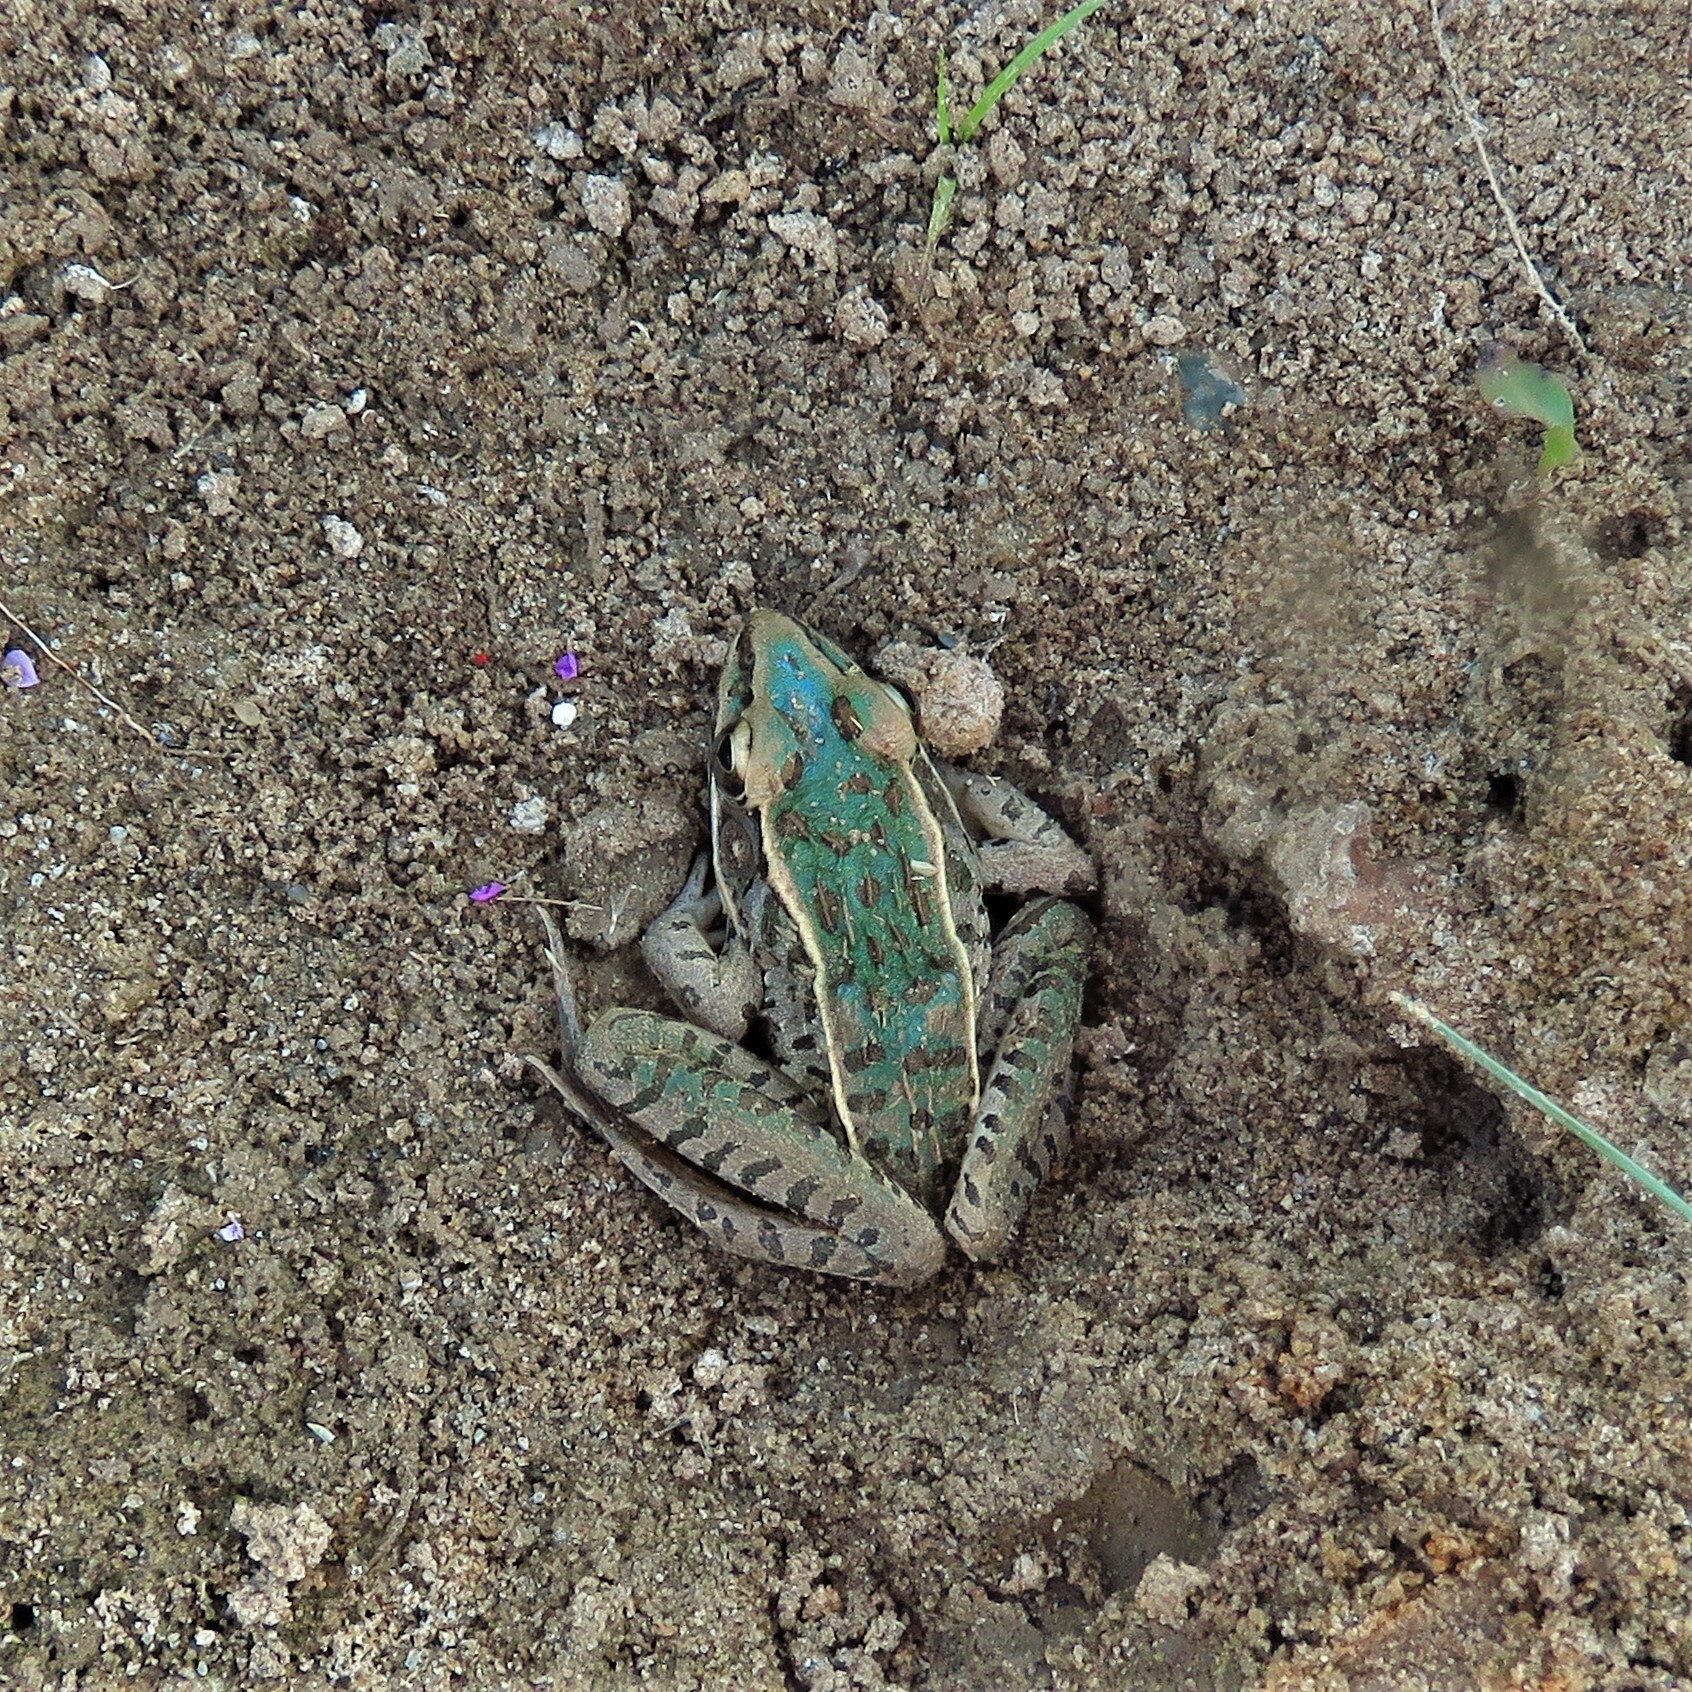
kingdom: Animalia
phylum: Chordata
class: Amphibia
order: Anura
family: Ranidae
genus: Lithobates
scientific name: Lithobates sphenocephalus
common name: Southern leopard frog
